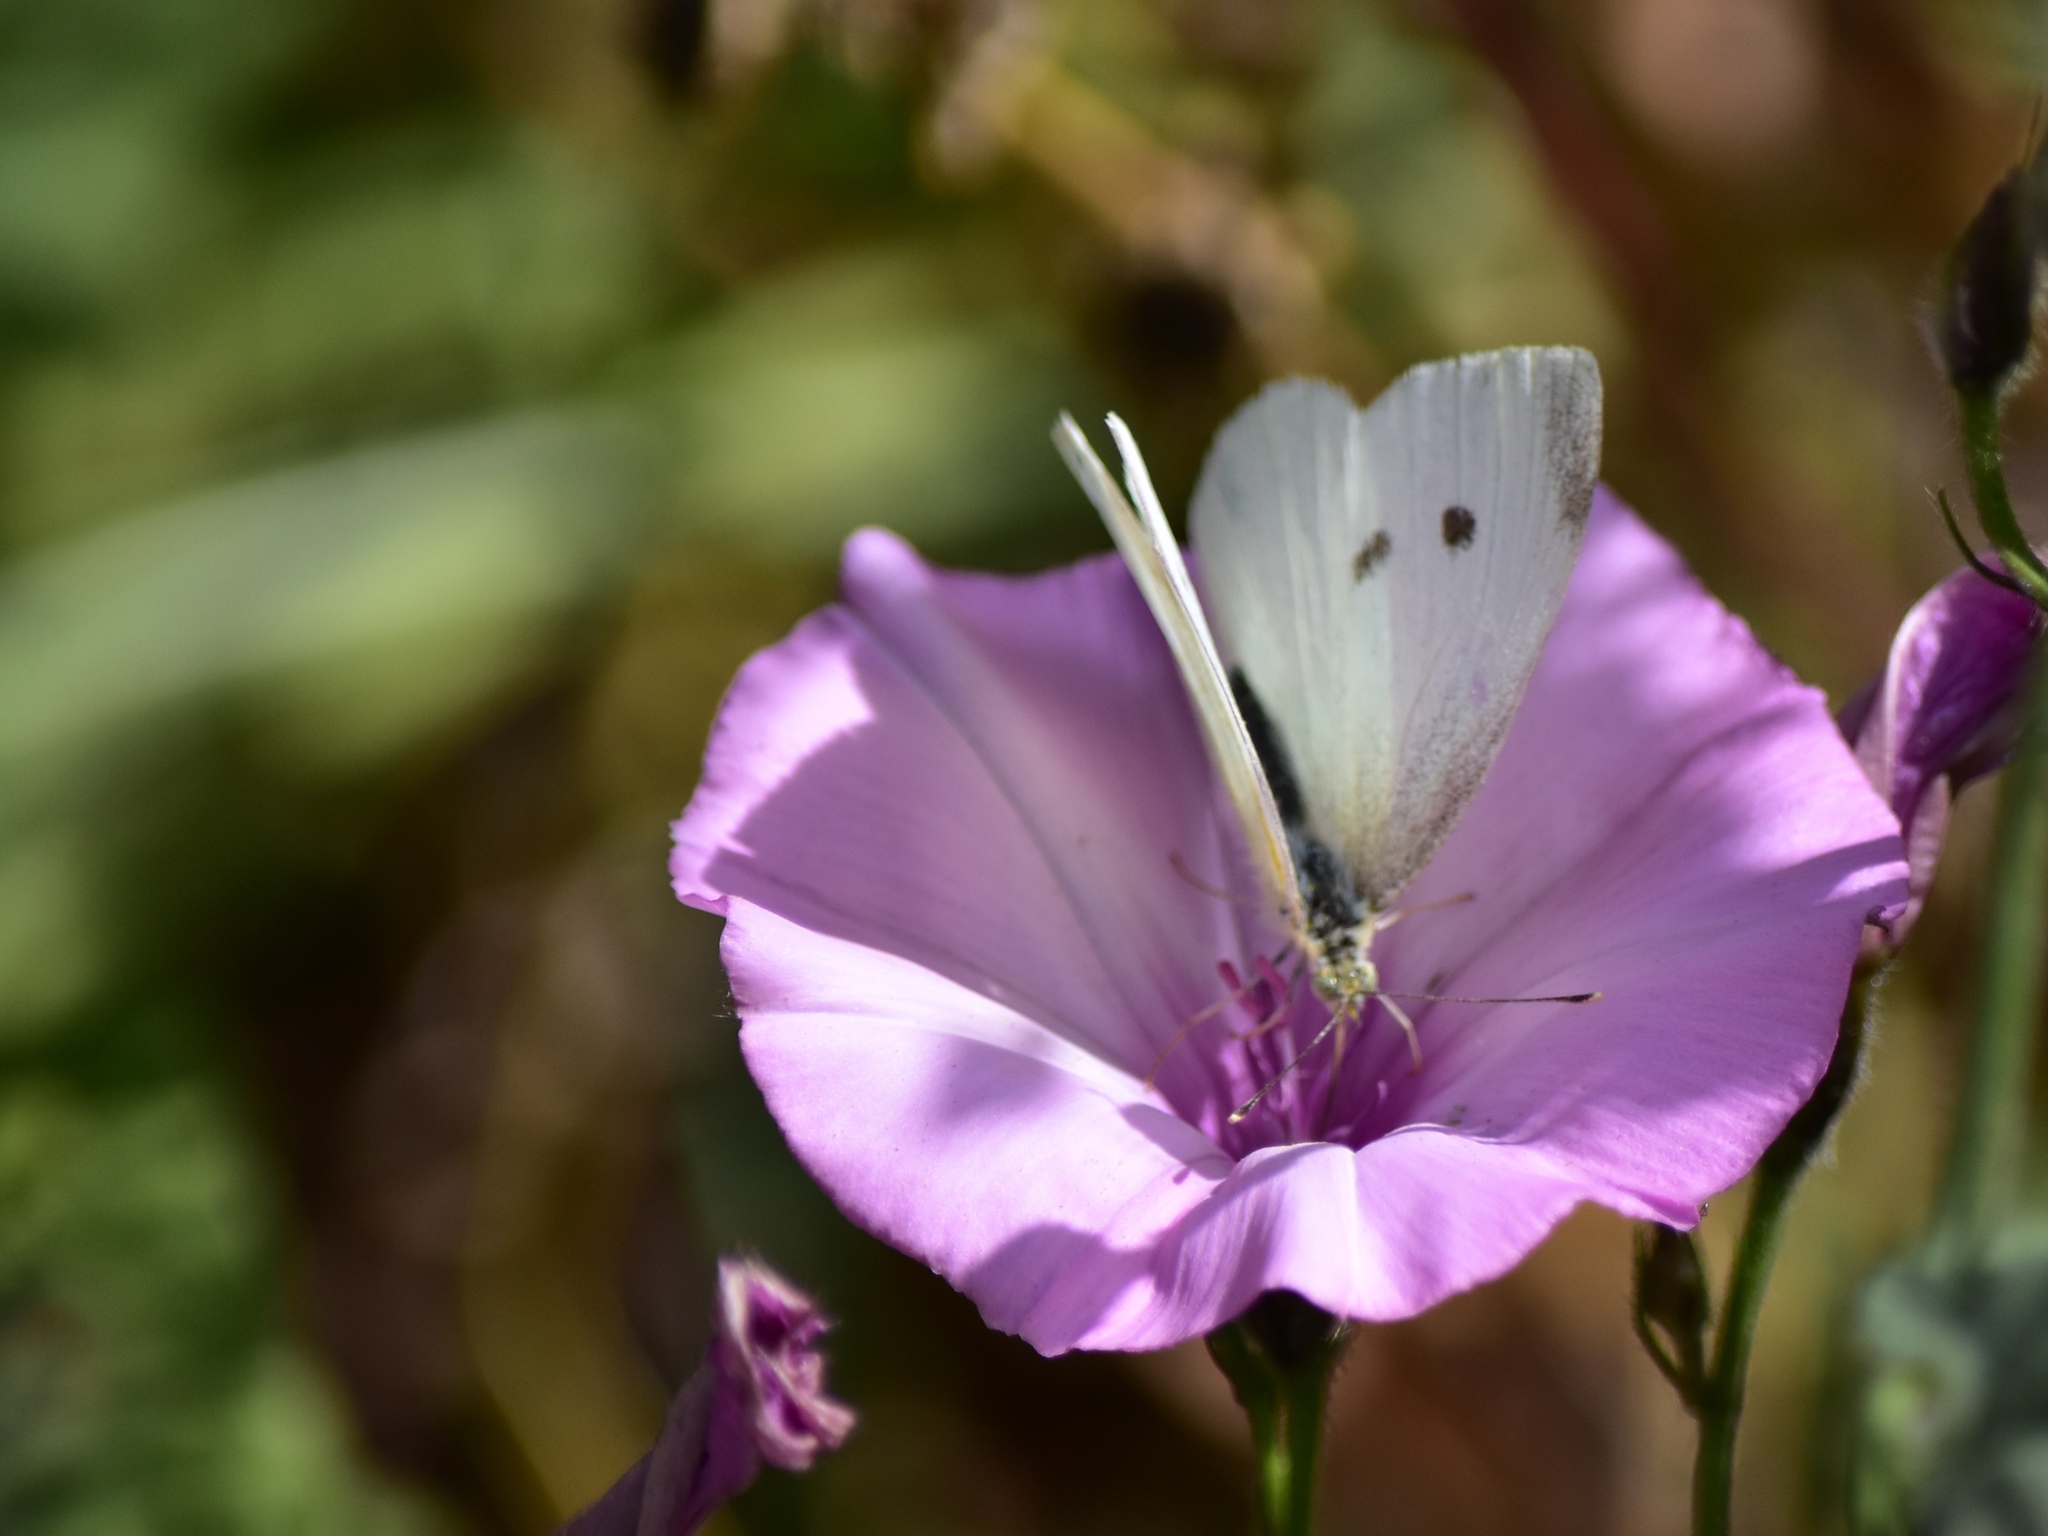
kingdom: Animalia
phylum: Arthropoda
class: Insecta
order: Lepidoptera
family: Pieridae
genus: Pieris
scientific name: Pieris rapae
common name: Small white
